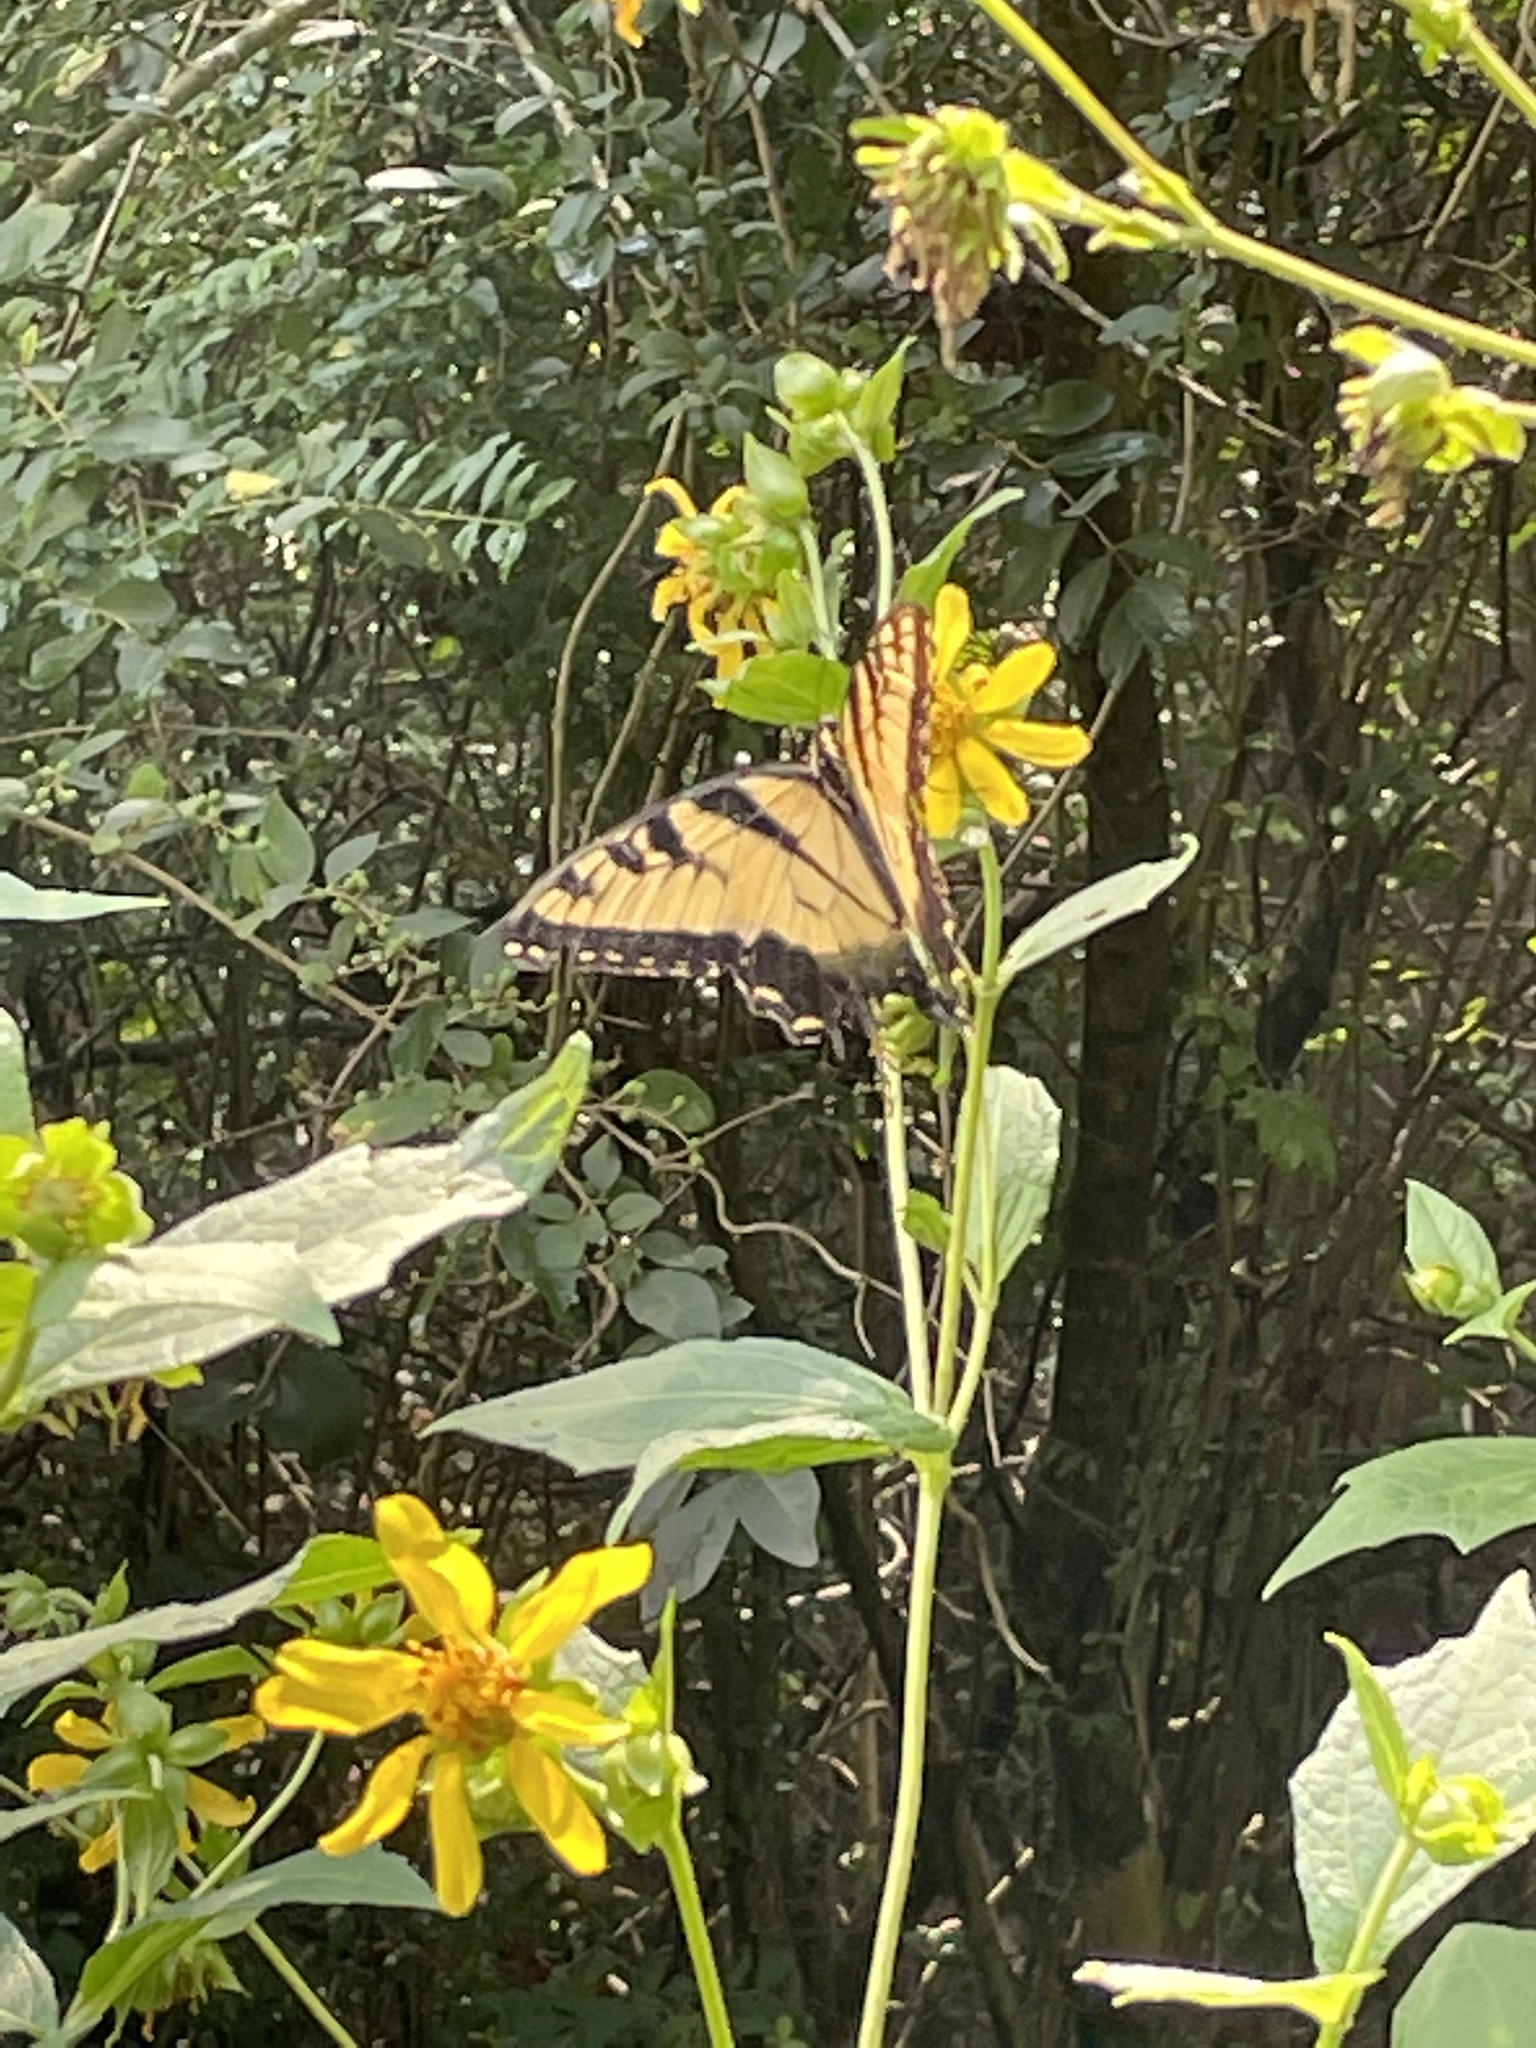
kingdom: Animalia
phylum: Arthropoda
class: Insecta
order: Lepidoptera
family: Papilionidae
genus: Papilio
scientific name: Papilio glaucus
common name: Tiger swallowtail
